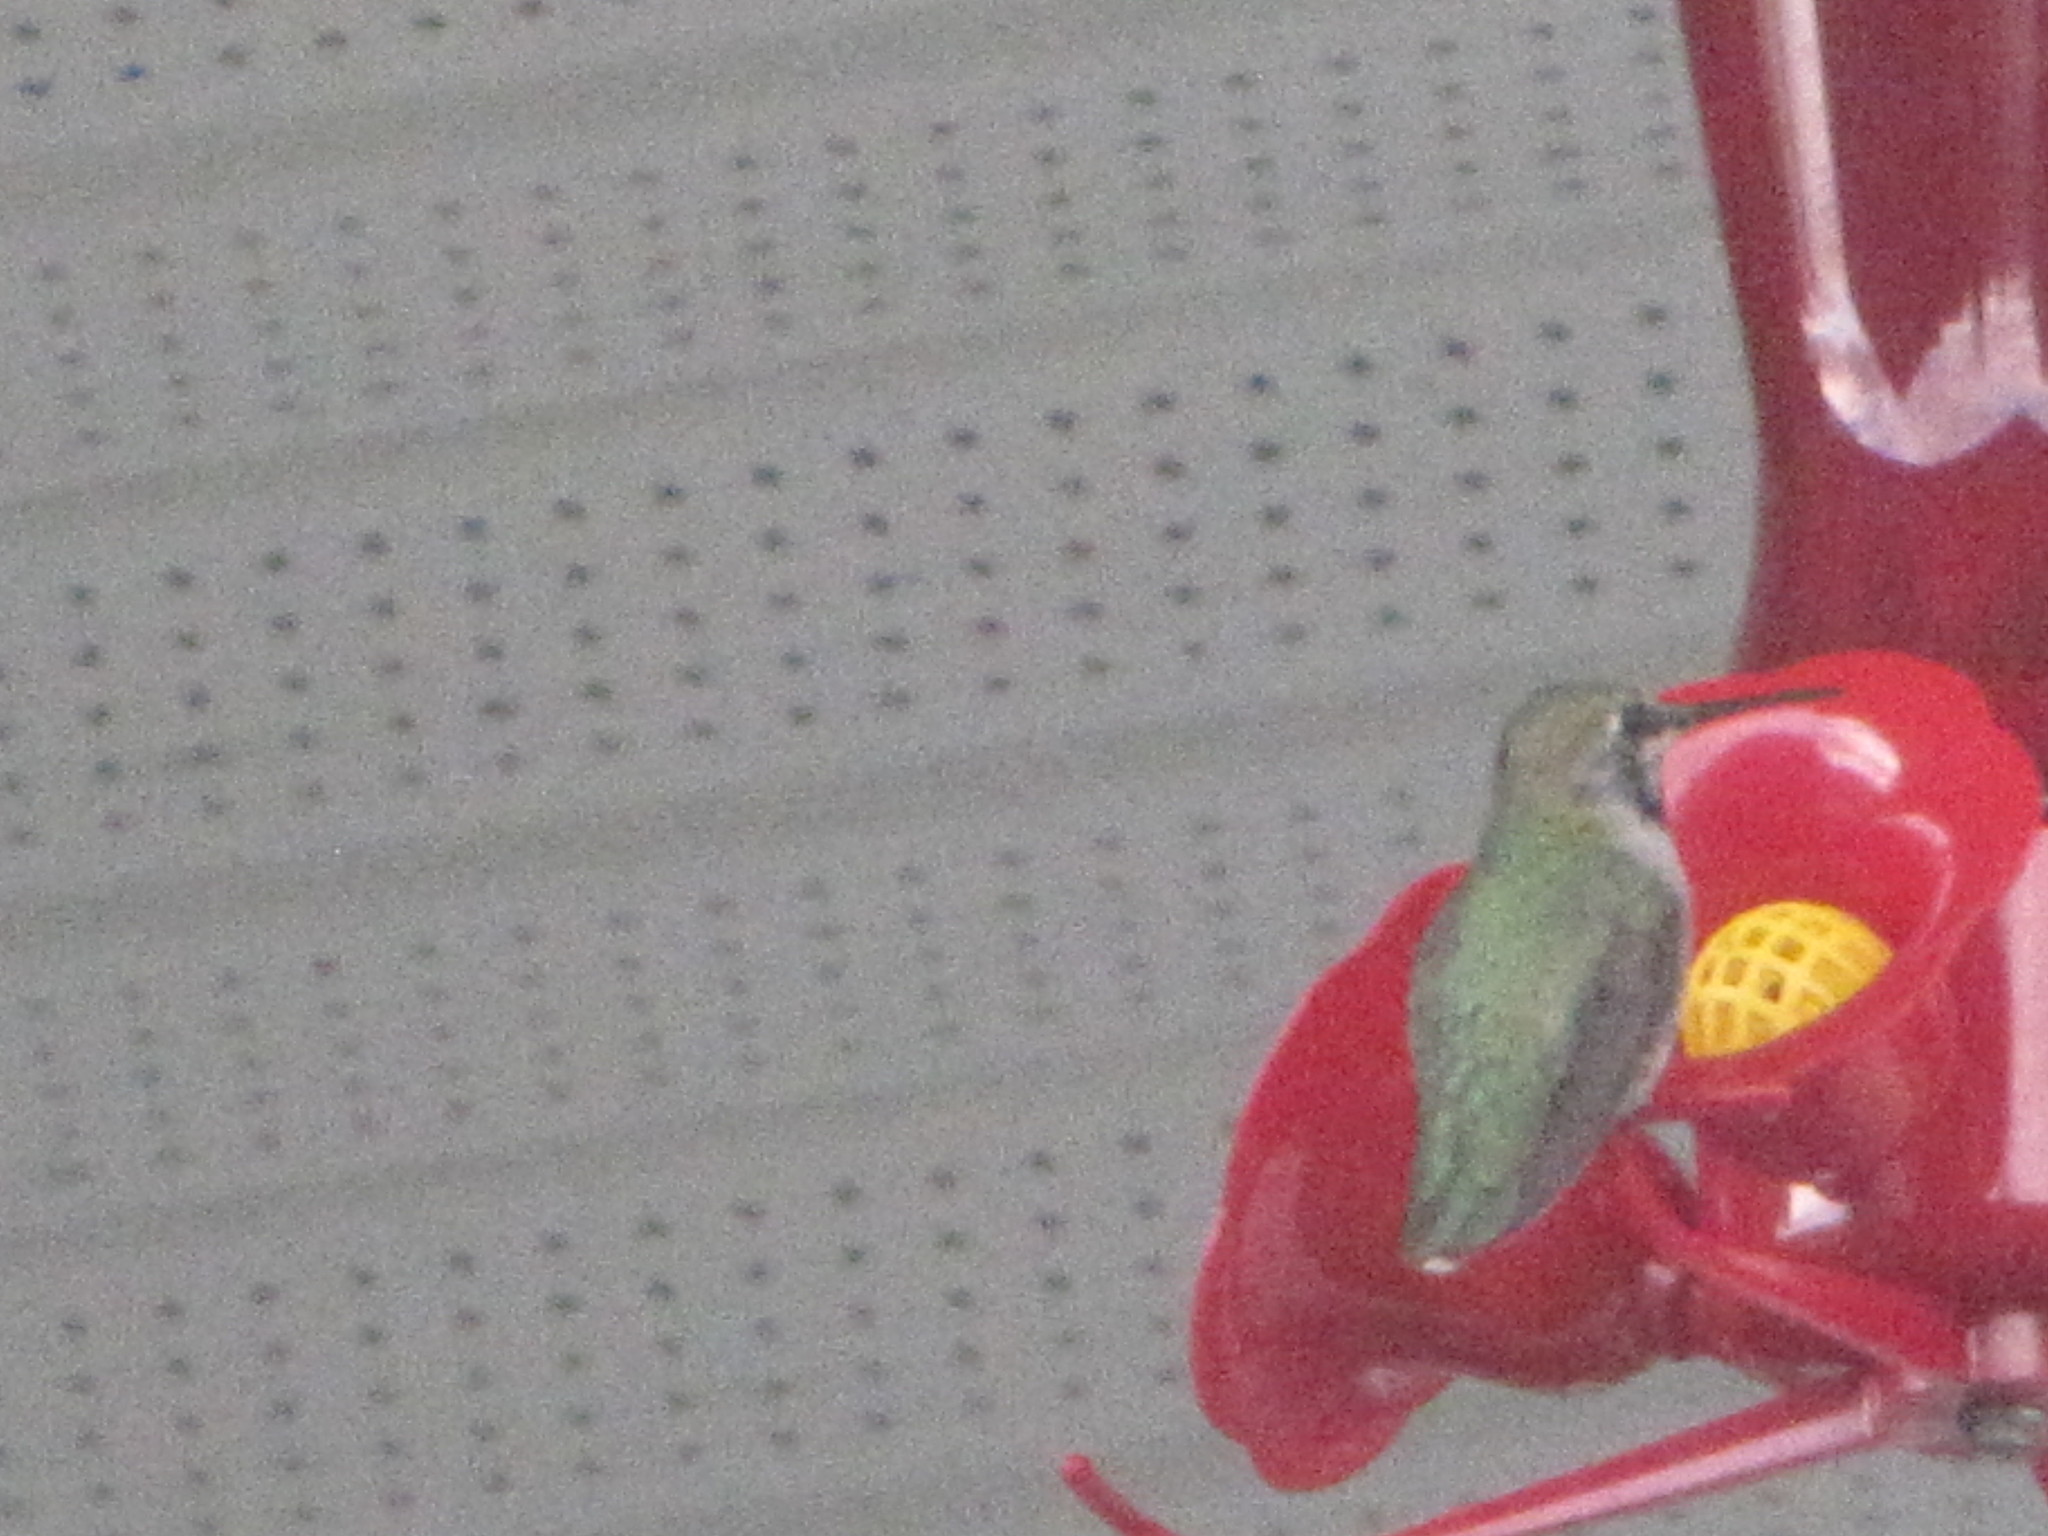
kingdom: Animalia
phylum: Chordata
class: Aves
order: Apodiformes
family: Trochilidae
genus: Calypte
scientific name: Calypte anna
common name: Anna's hummingbird
